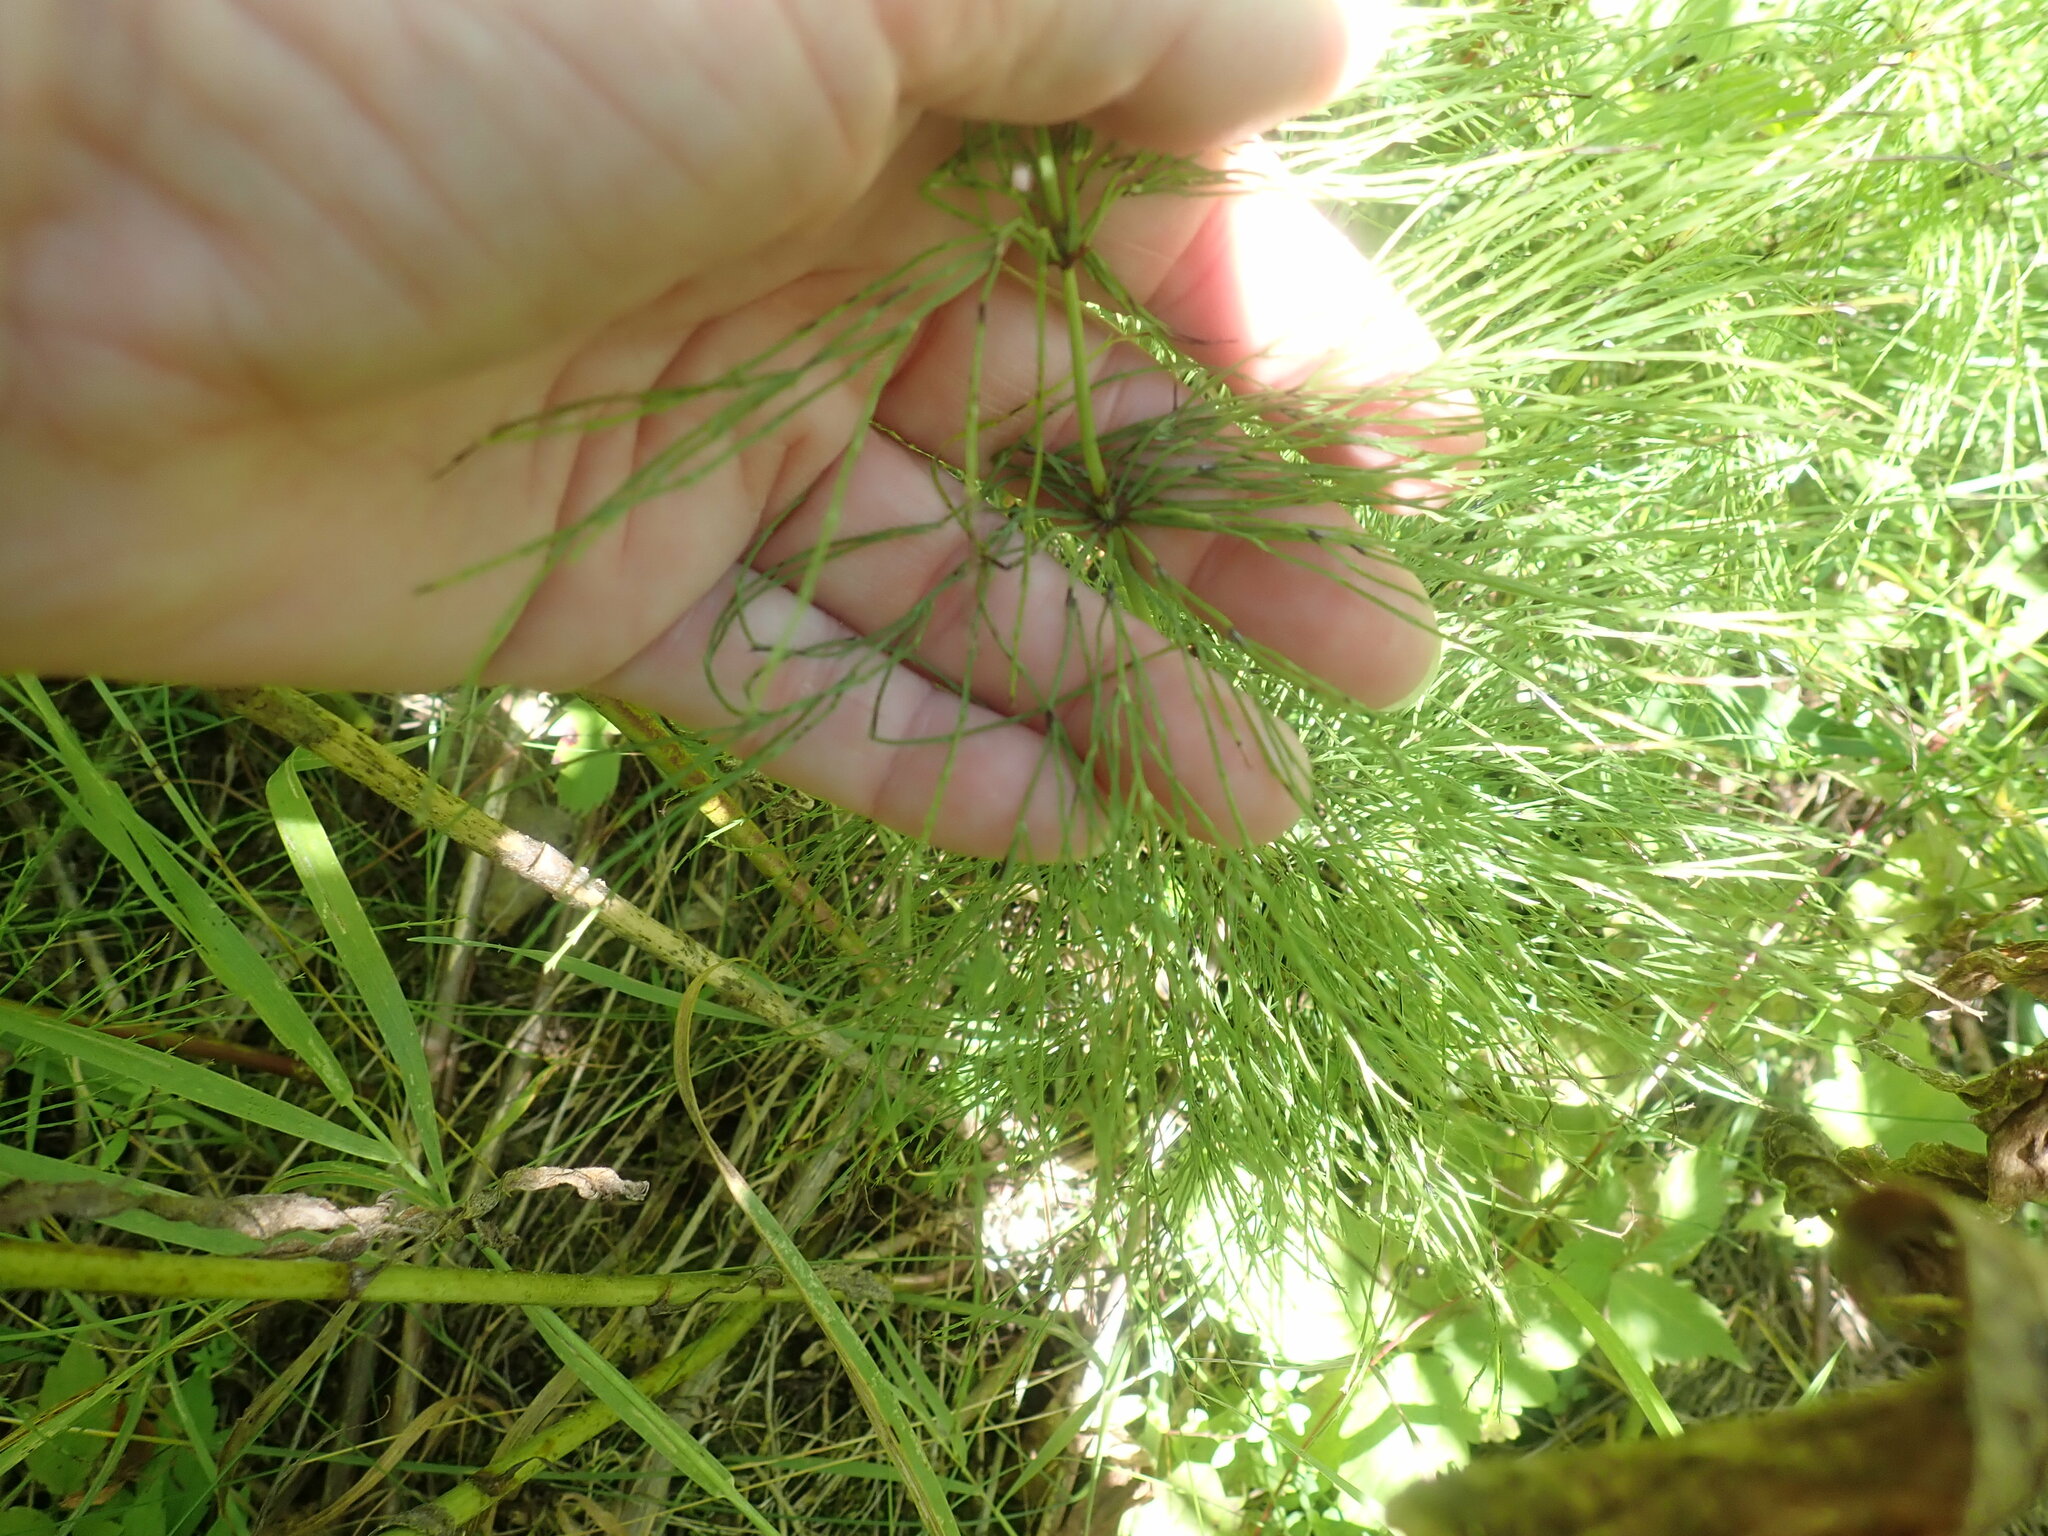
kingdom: Plantae
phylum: Tracheophyta
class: Polypodiopsida
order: Equisetales
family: Equisetaceae
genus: Equisetum
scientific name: Equisetum sylvaticum
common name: Wood horsetail
